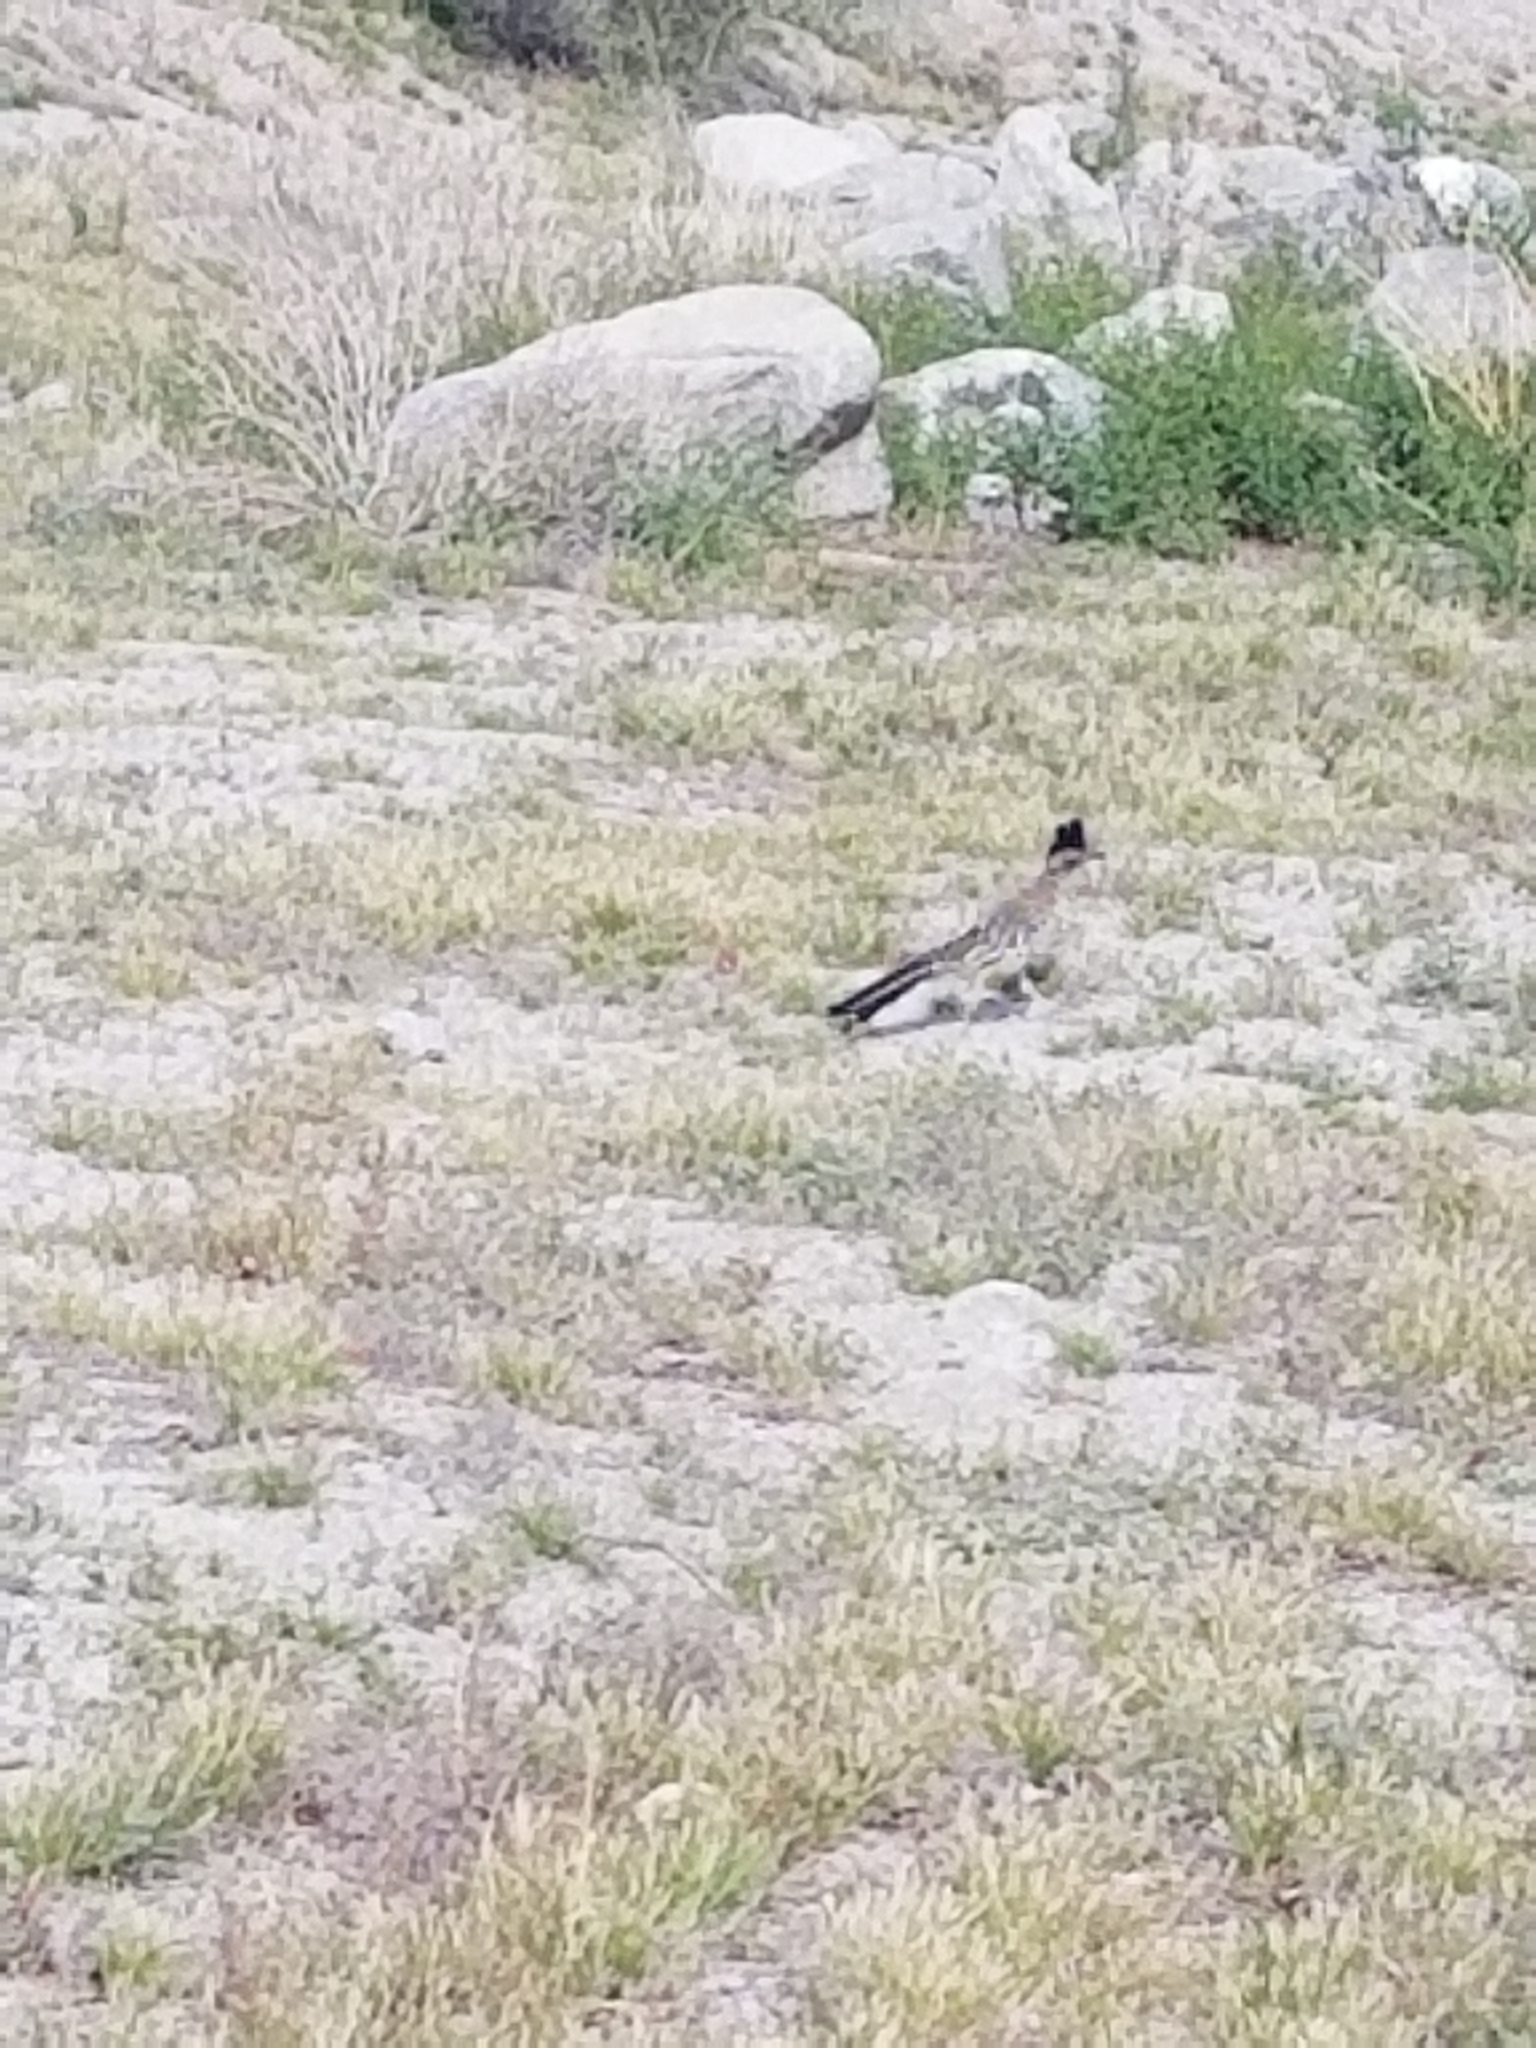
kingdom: Animalia
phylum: Chordata
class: Aves
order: Cuculiformes
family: Cuculidae
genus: Geococcyx
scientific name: Geococcyx californianus
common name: Greater roadrunner
